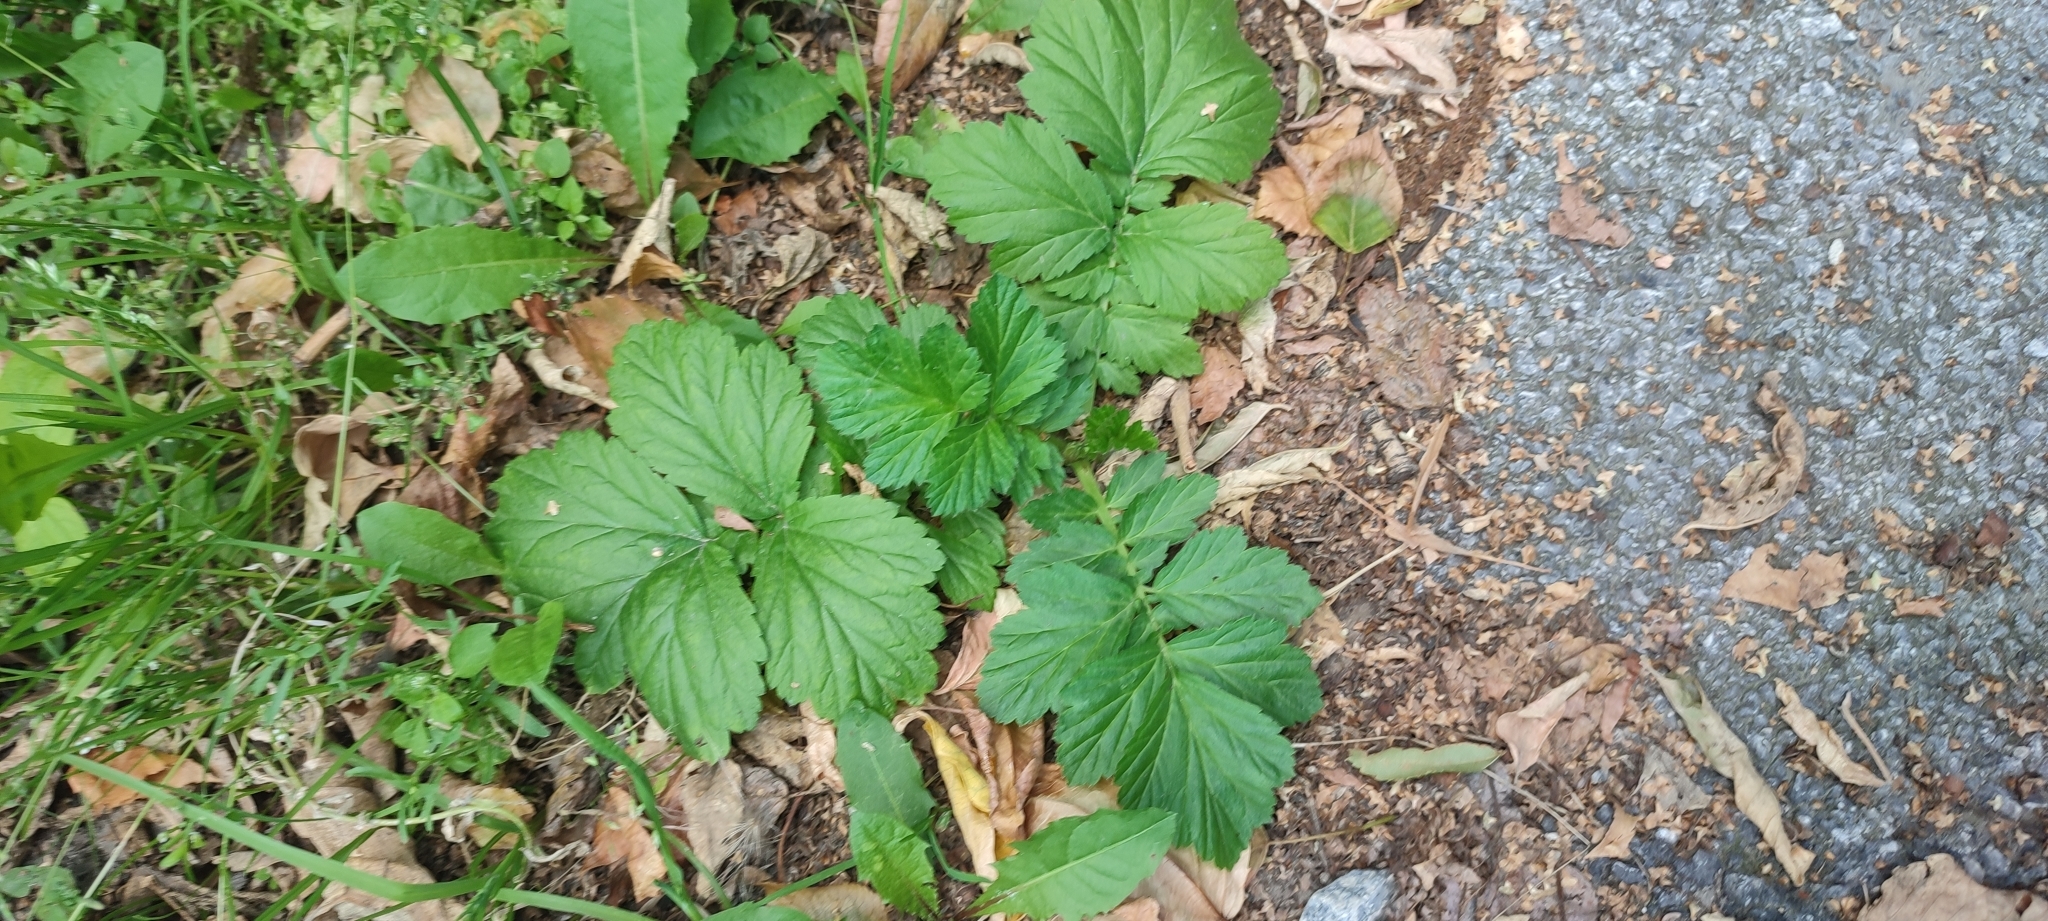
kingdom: Plantae
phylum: Tracheophyta
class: Magnoliopsida
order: Rosales
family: Rosaceae
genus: Geum
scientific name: Geum aleppicum
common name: Yellow avens
